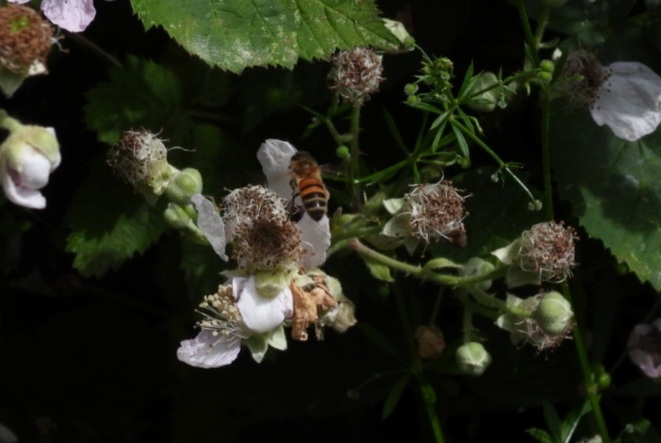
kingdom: Animalia
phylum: Arthropoda
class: Insecta
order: Hymenoptera
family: Apidae
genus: Apis
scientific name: Apis mellifera
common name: Honey bee
